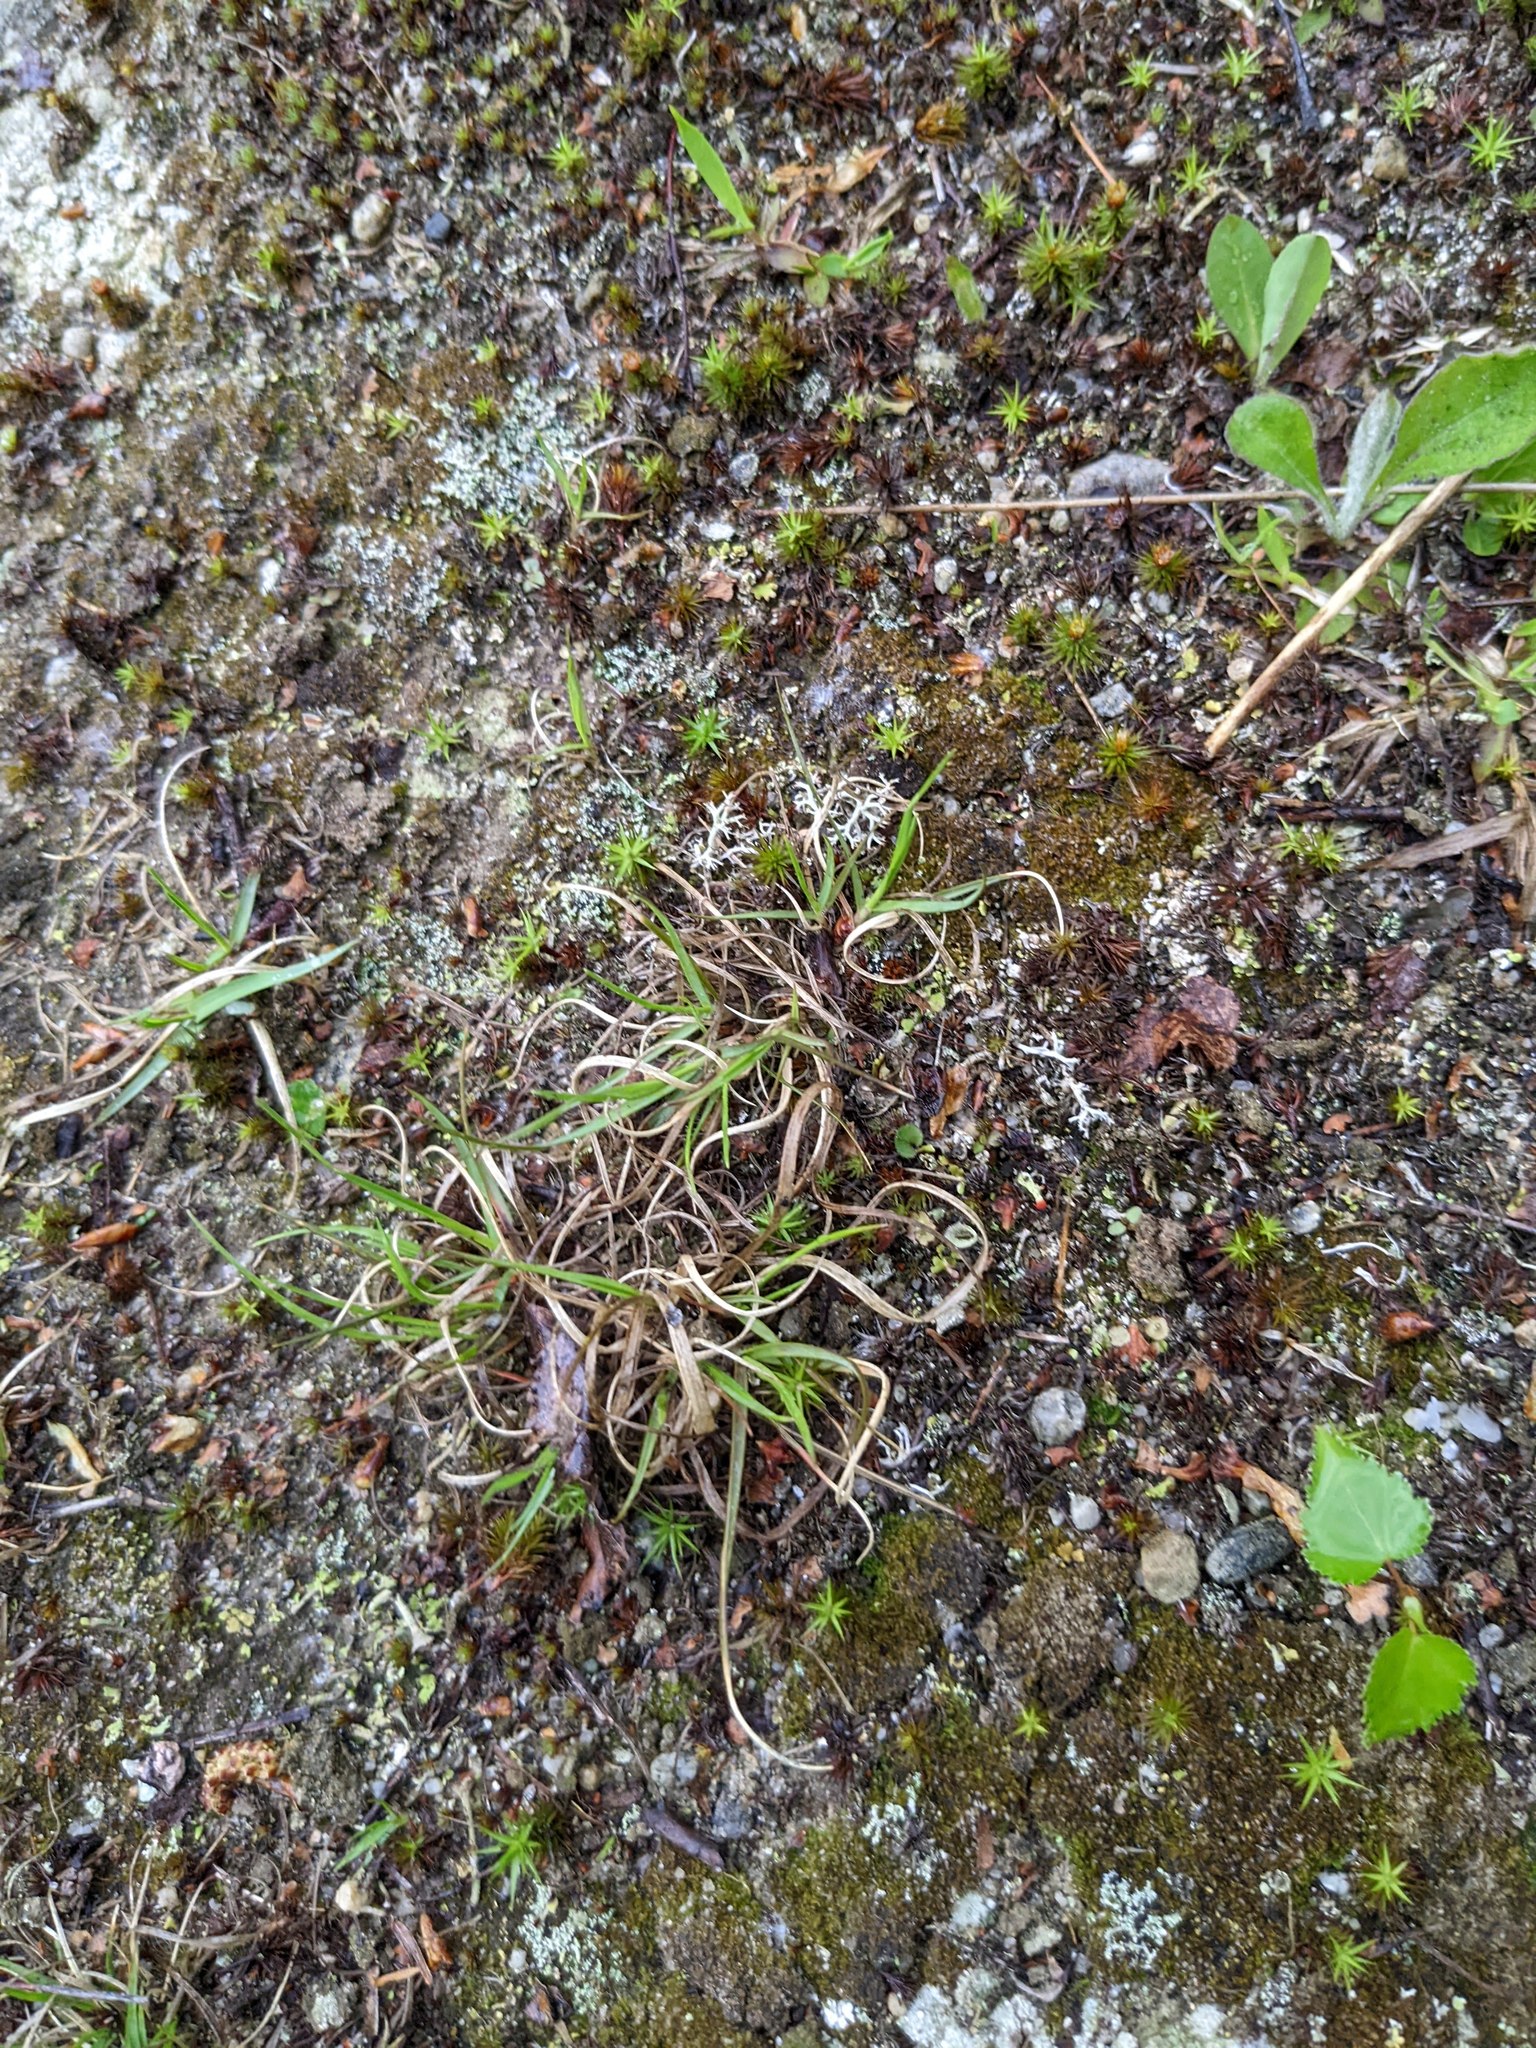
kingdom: Plantae
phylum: Tracheophyta
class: Liliopsida
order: Poales
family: Poaceae
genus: Danthonia
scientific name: Danthonia spicata
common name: Common wild oatgrass
